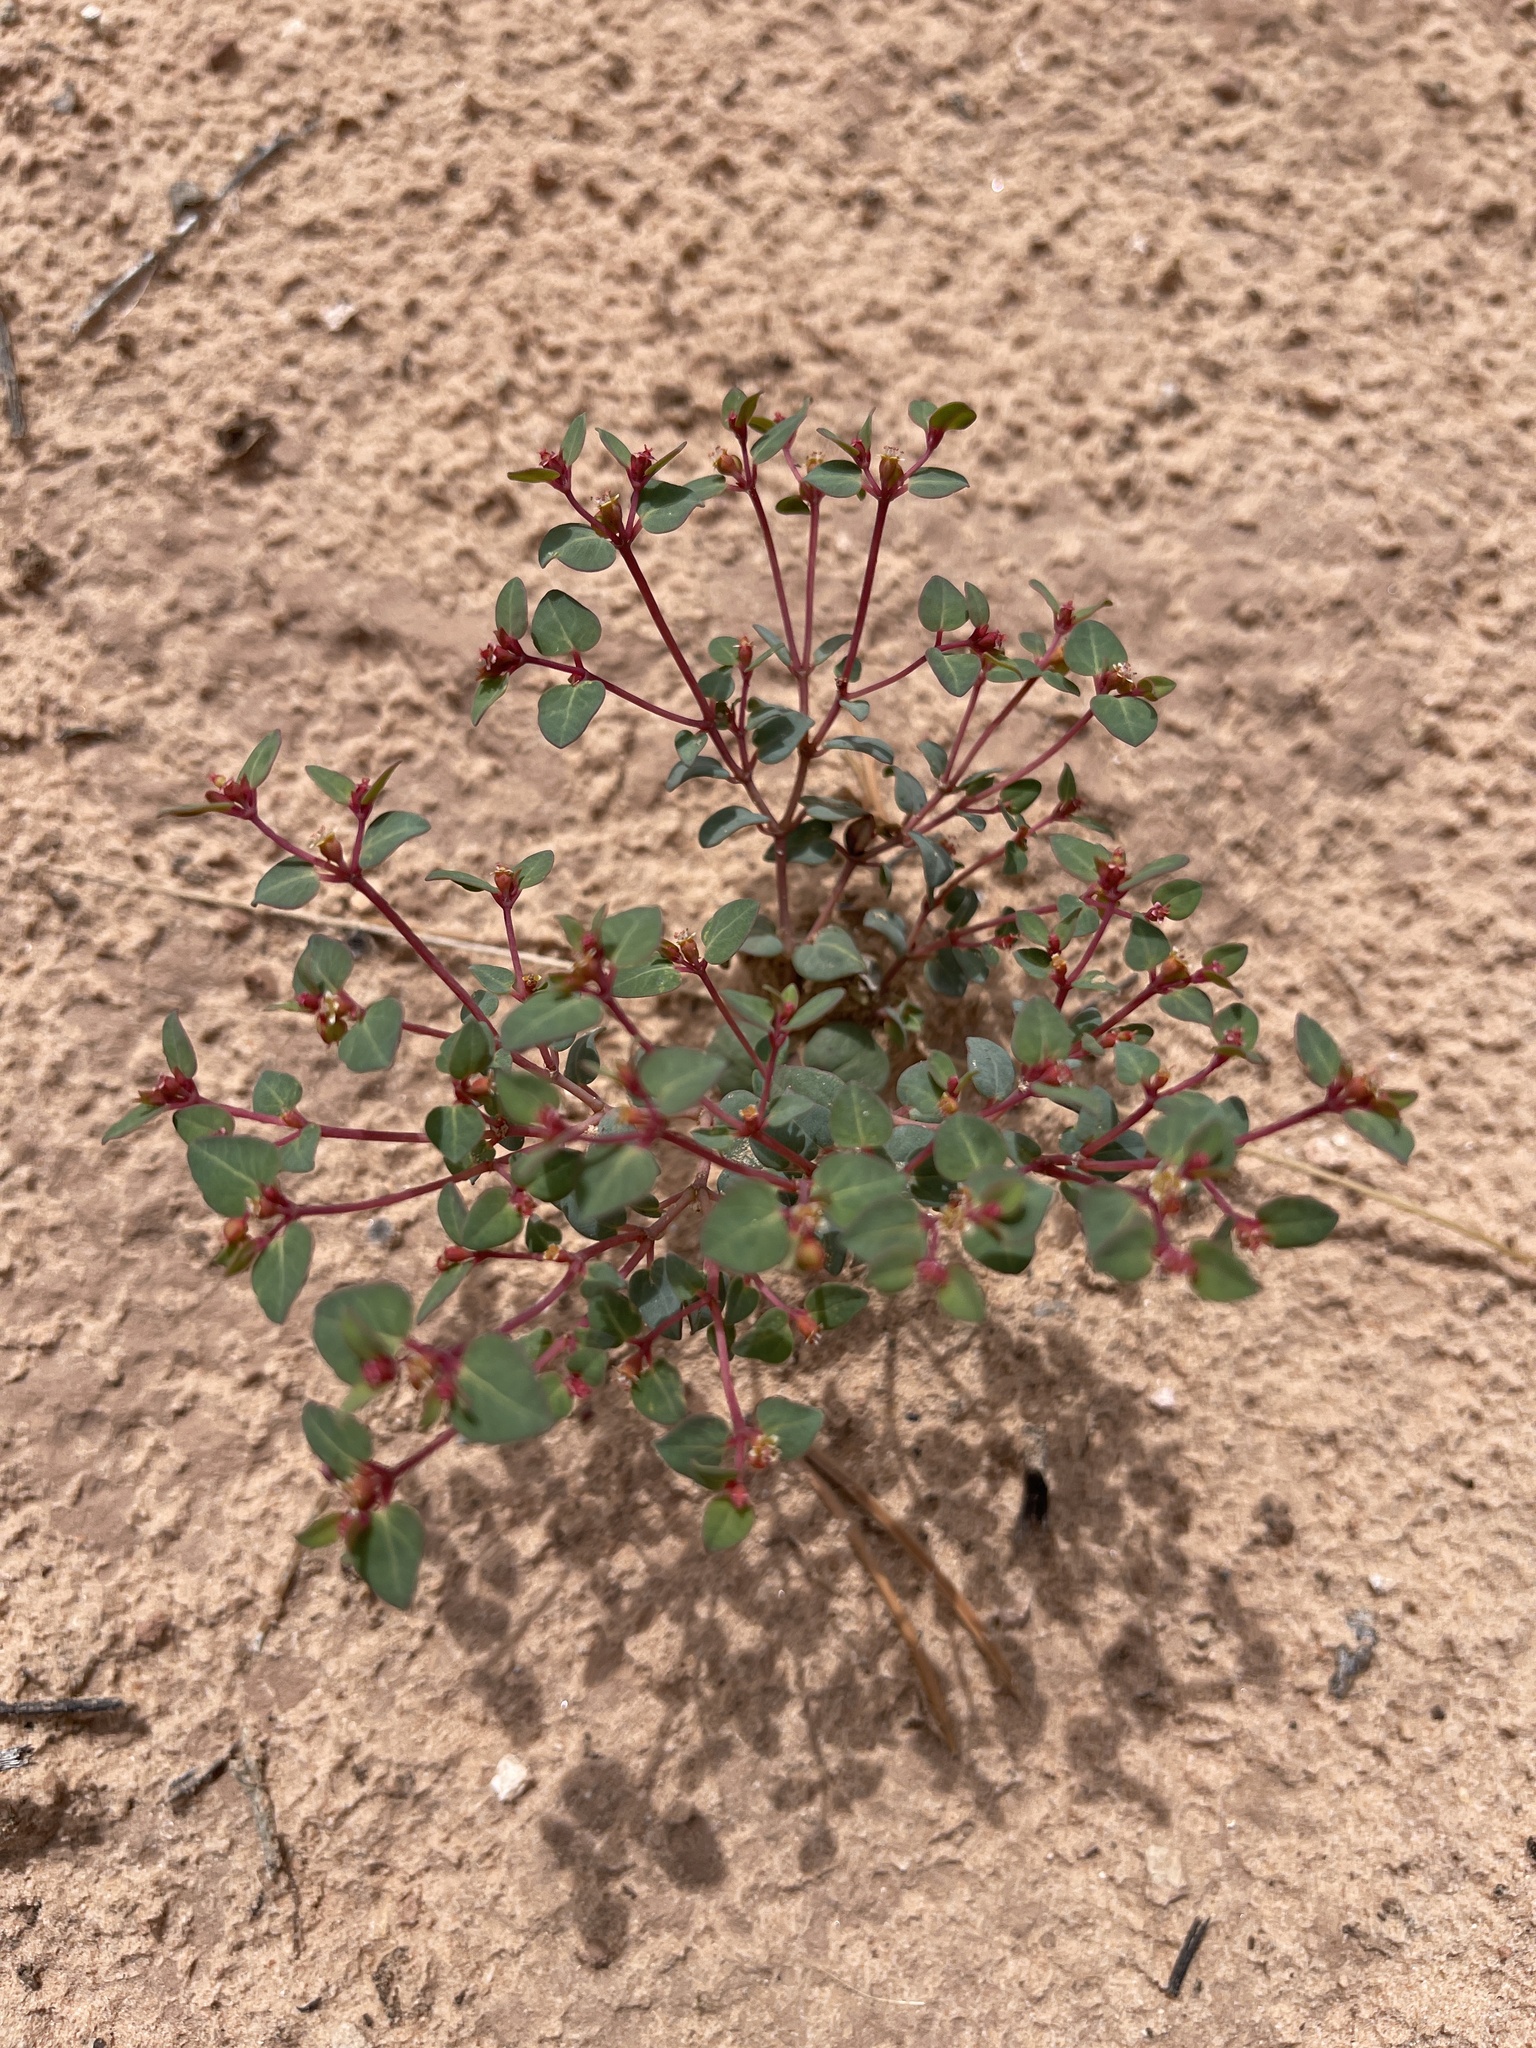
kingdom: Plantae
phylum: Tracheophyta
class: Magnoliopsida
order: Malpighiales
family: Euphorbiaceae
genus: Euphorbia
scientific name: Euphorbia fendleri
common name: Fendler's euphorbia
